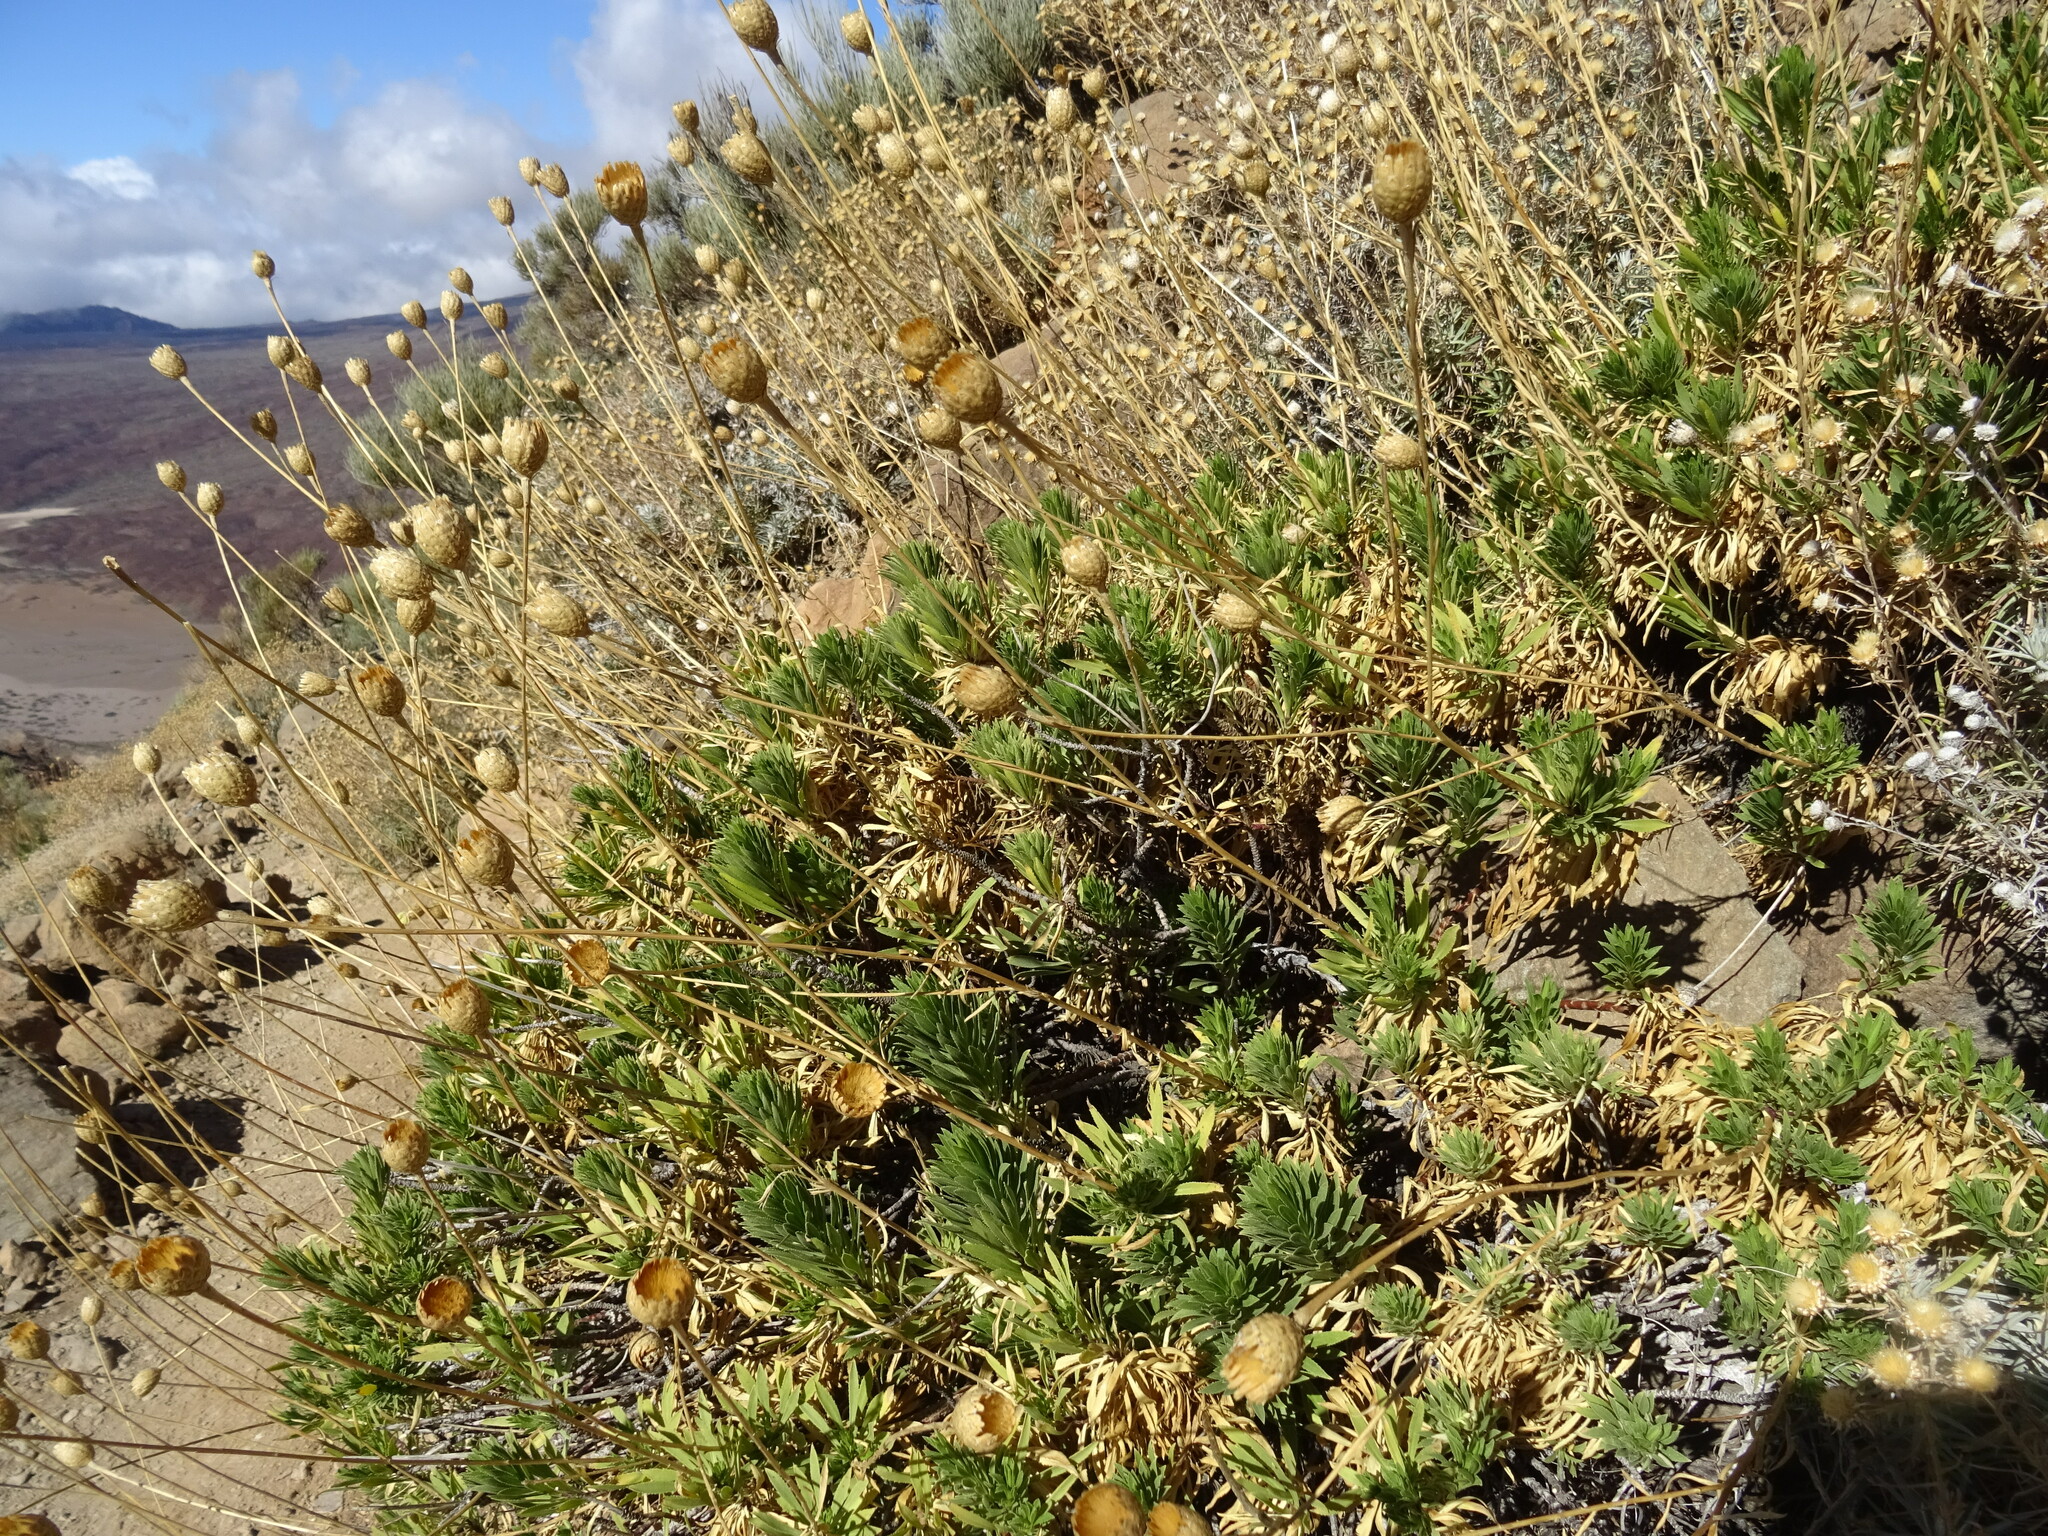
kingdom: Plantae
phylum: Tracheophyta
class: Magnoliopsida
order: Asterales
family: Asteraceae
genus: Cheirolophus
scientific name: Cheirolophus teydis
